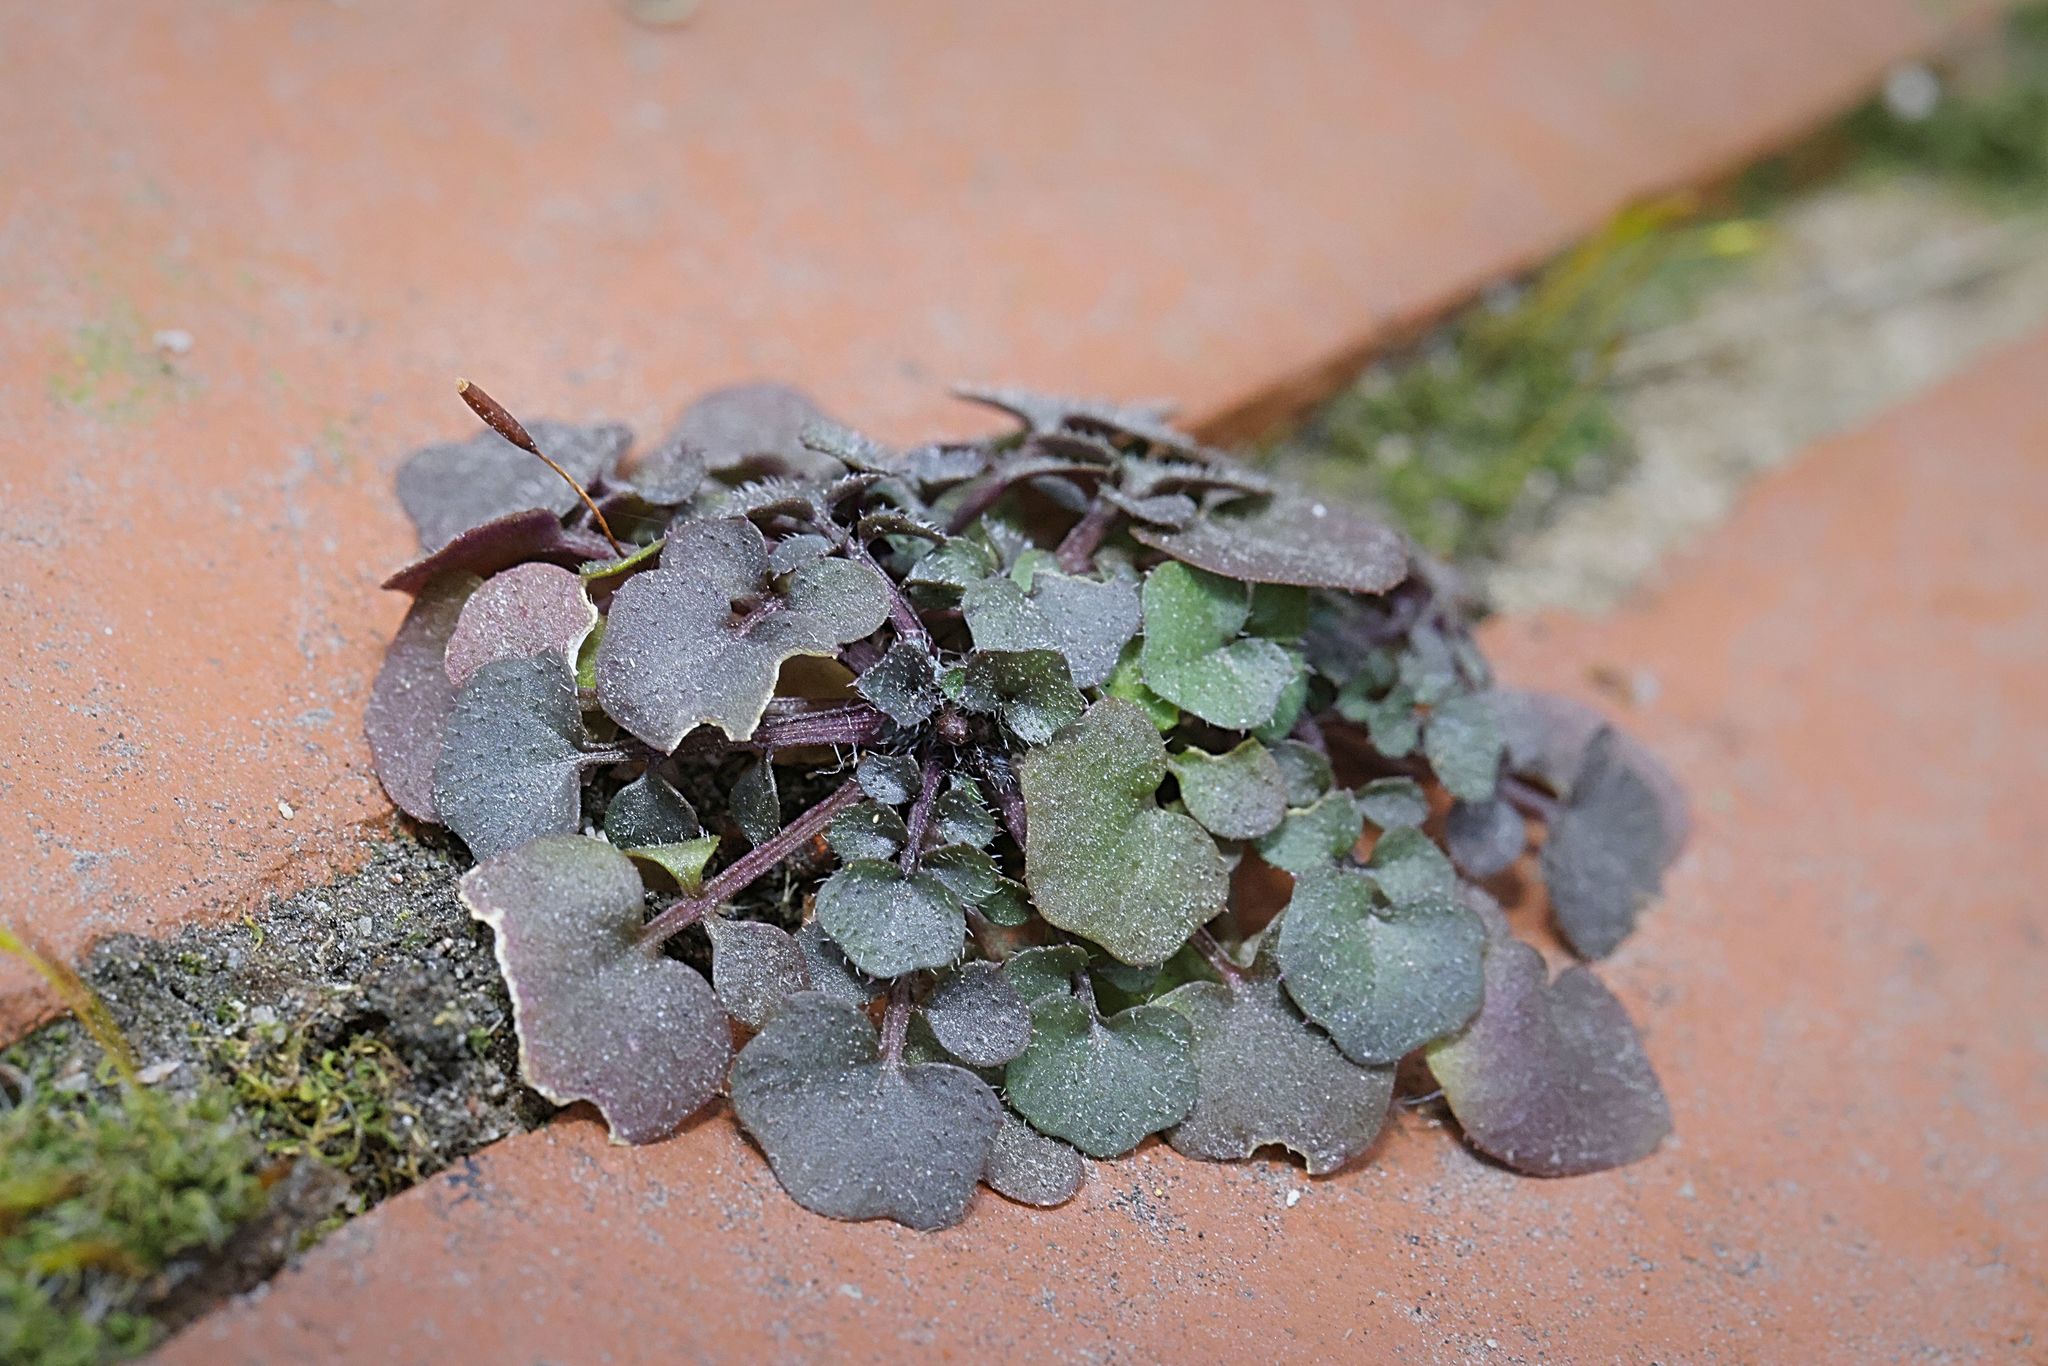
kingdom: Plantae
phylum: Tracheophyta
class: Magnoliopsida
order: Brassicales
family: Brassicaceae
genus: Cardamine
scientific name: Cardamine hirsuta
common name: Hairy bittercress
